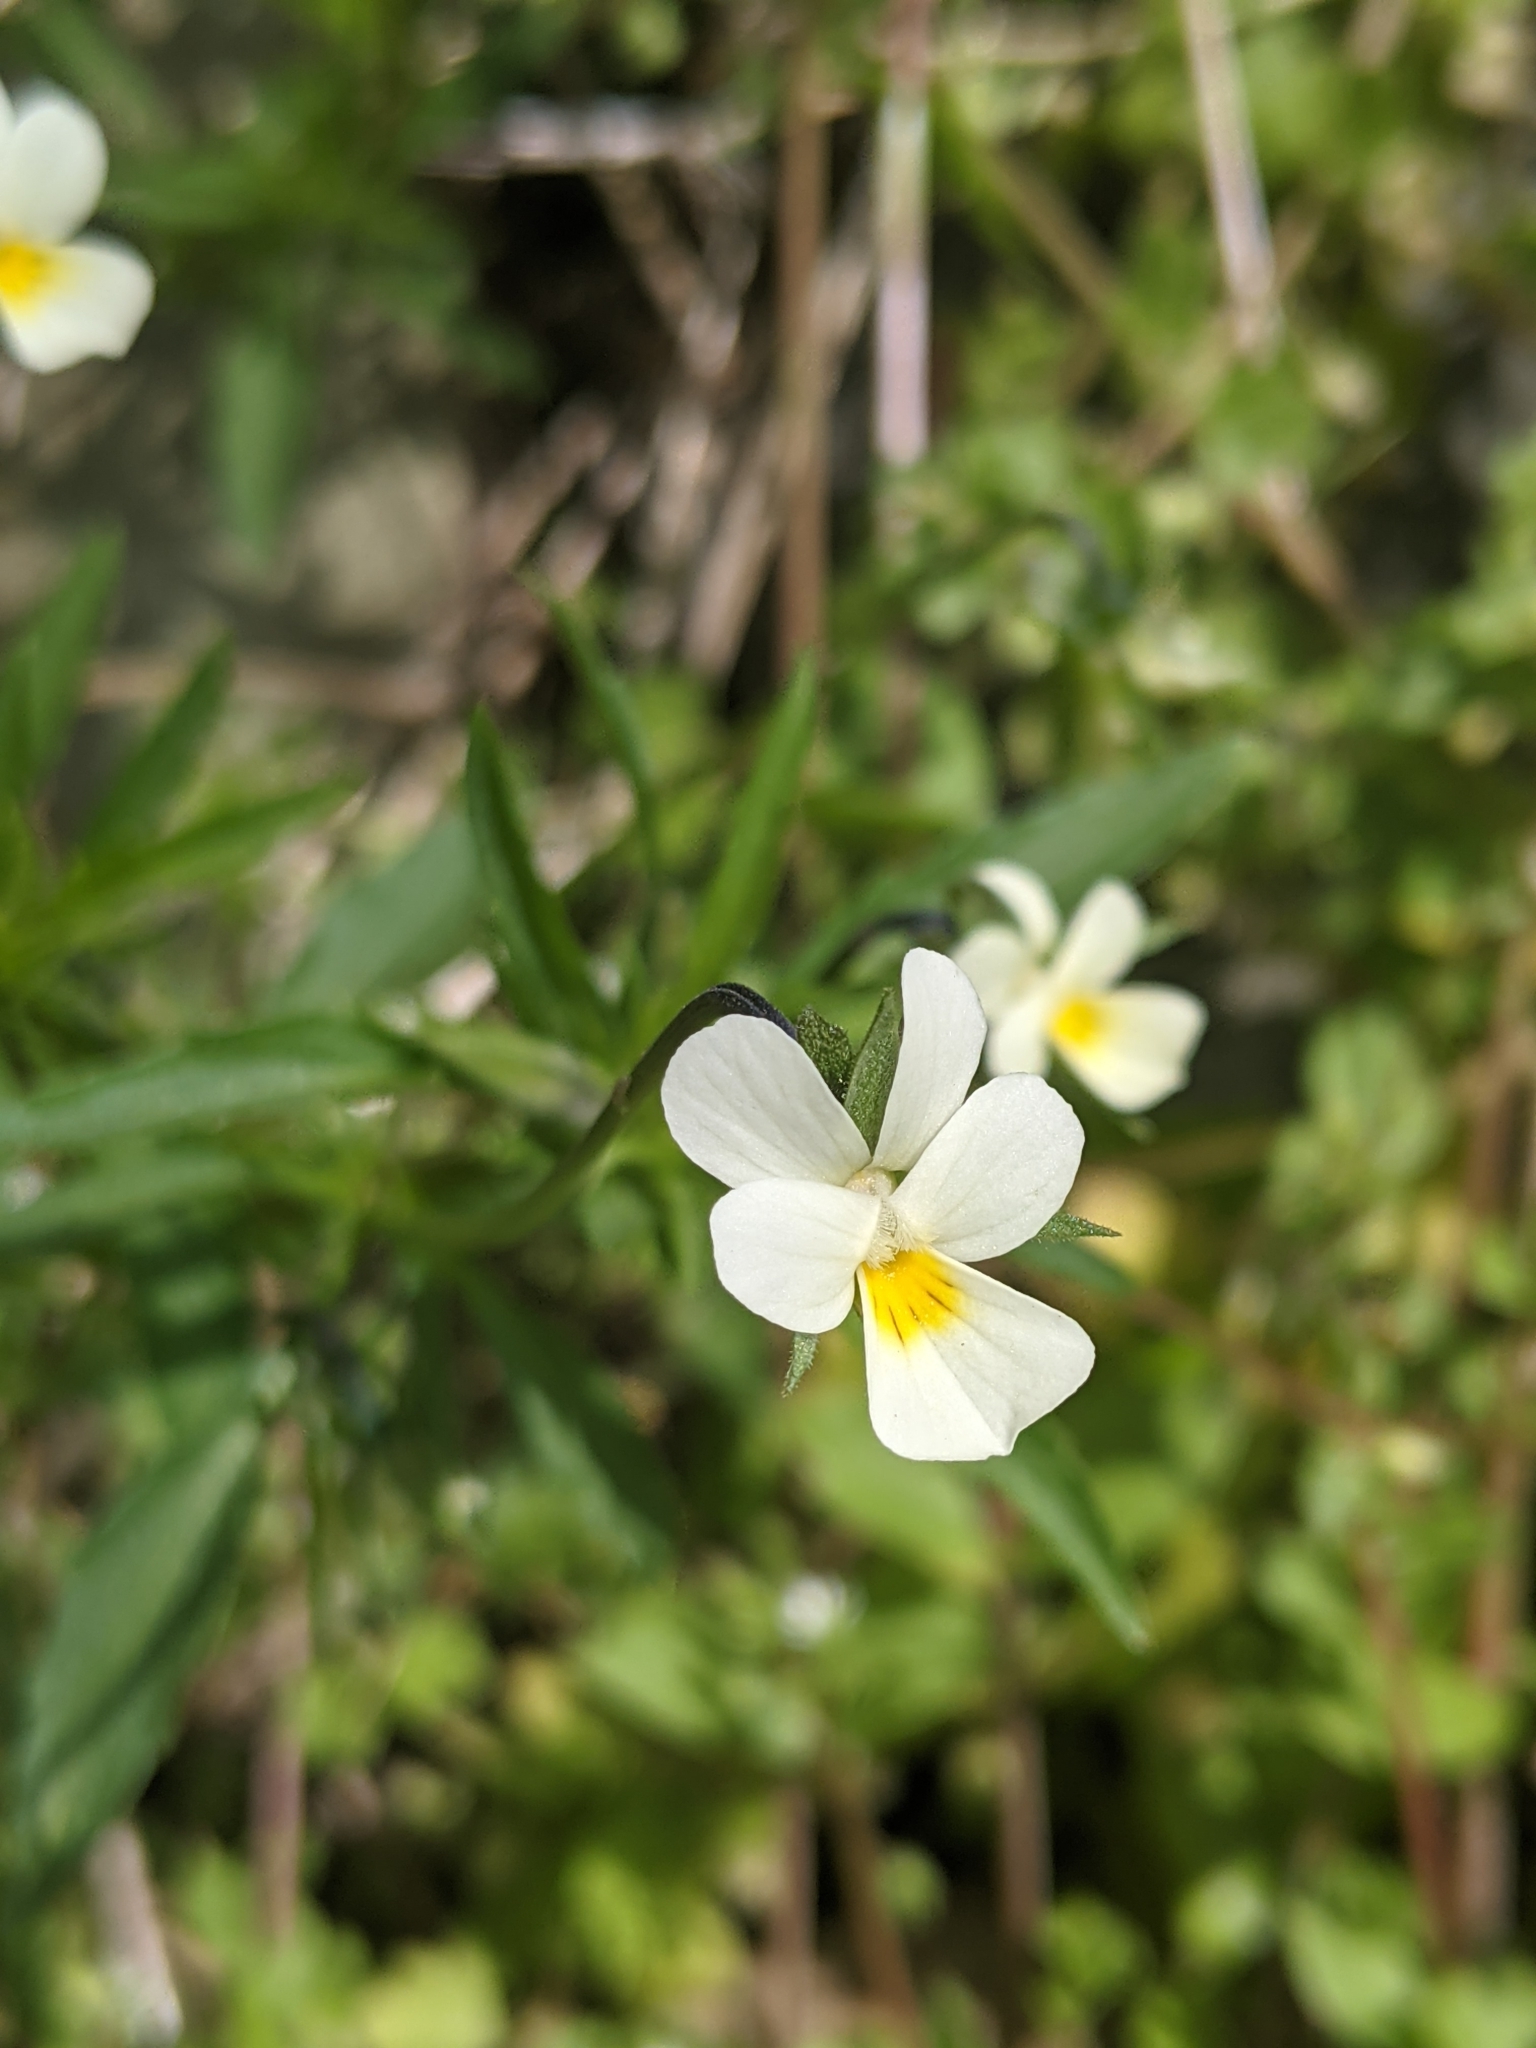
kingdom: Plantae
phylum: Tracheophyta
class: Magnoliopsida
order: Malpighiales
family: Violaceae
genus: Viola
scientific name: Viola rafinesquei
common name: American field pansy
